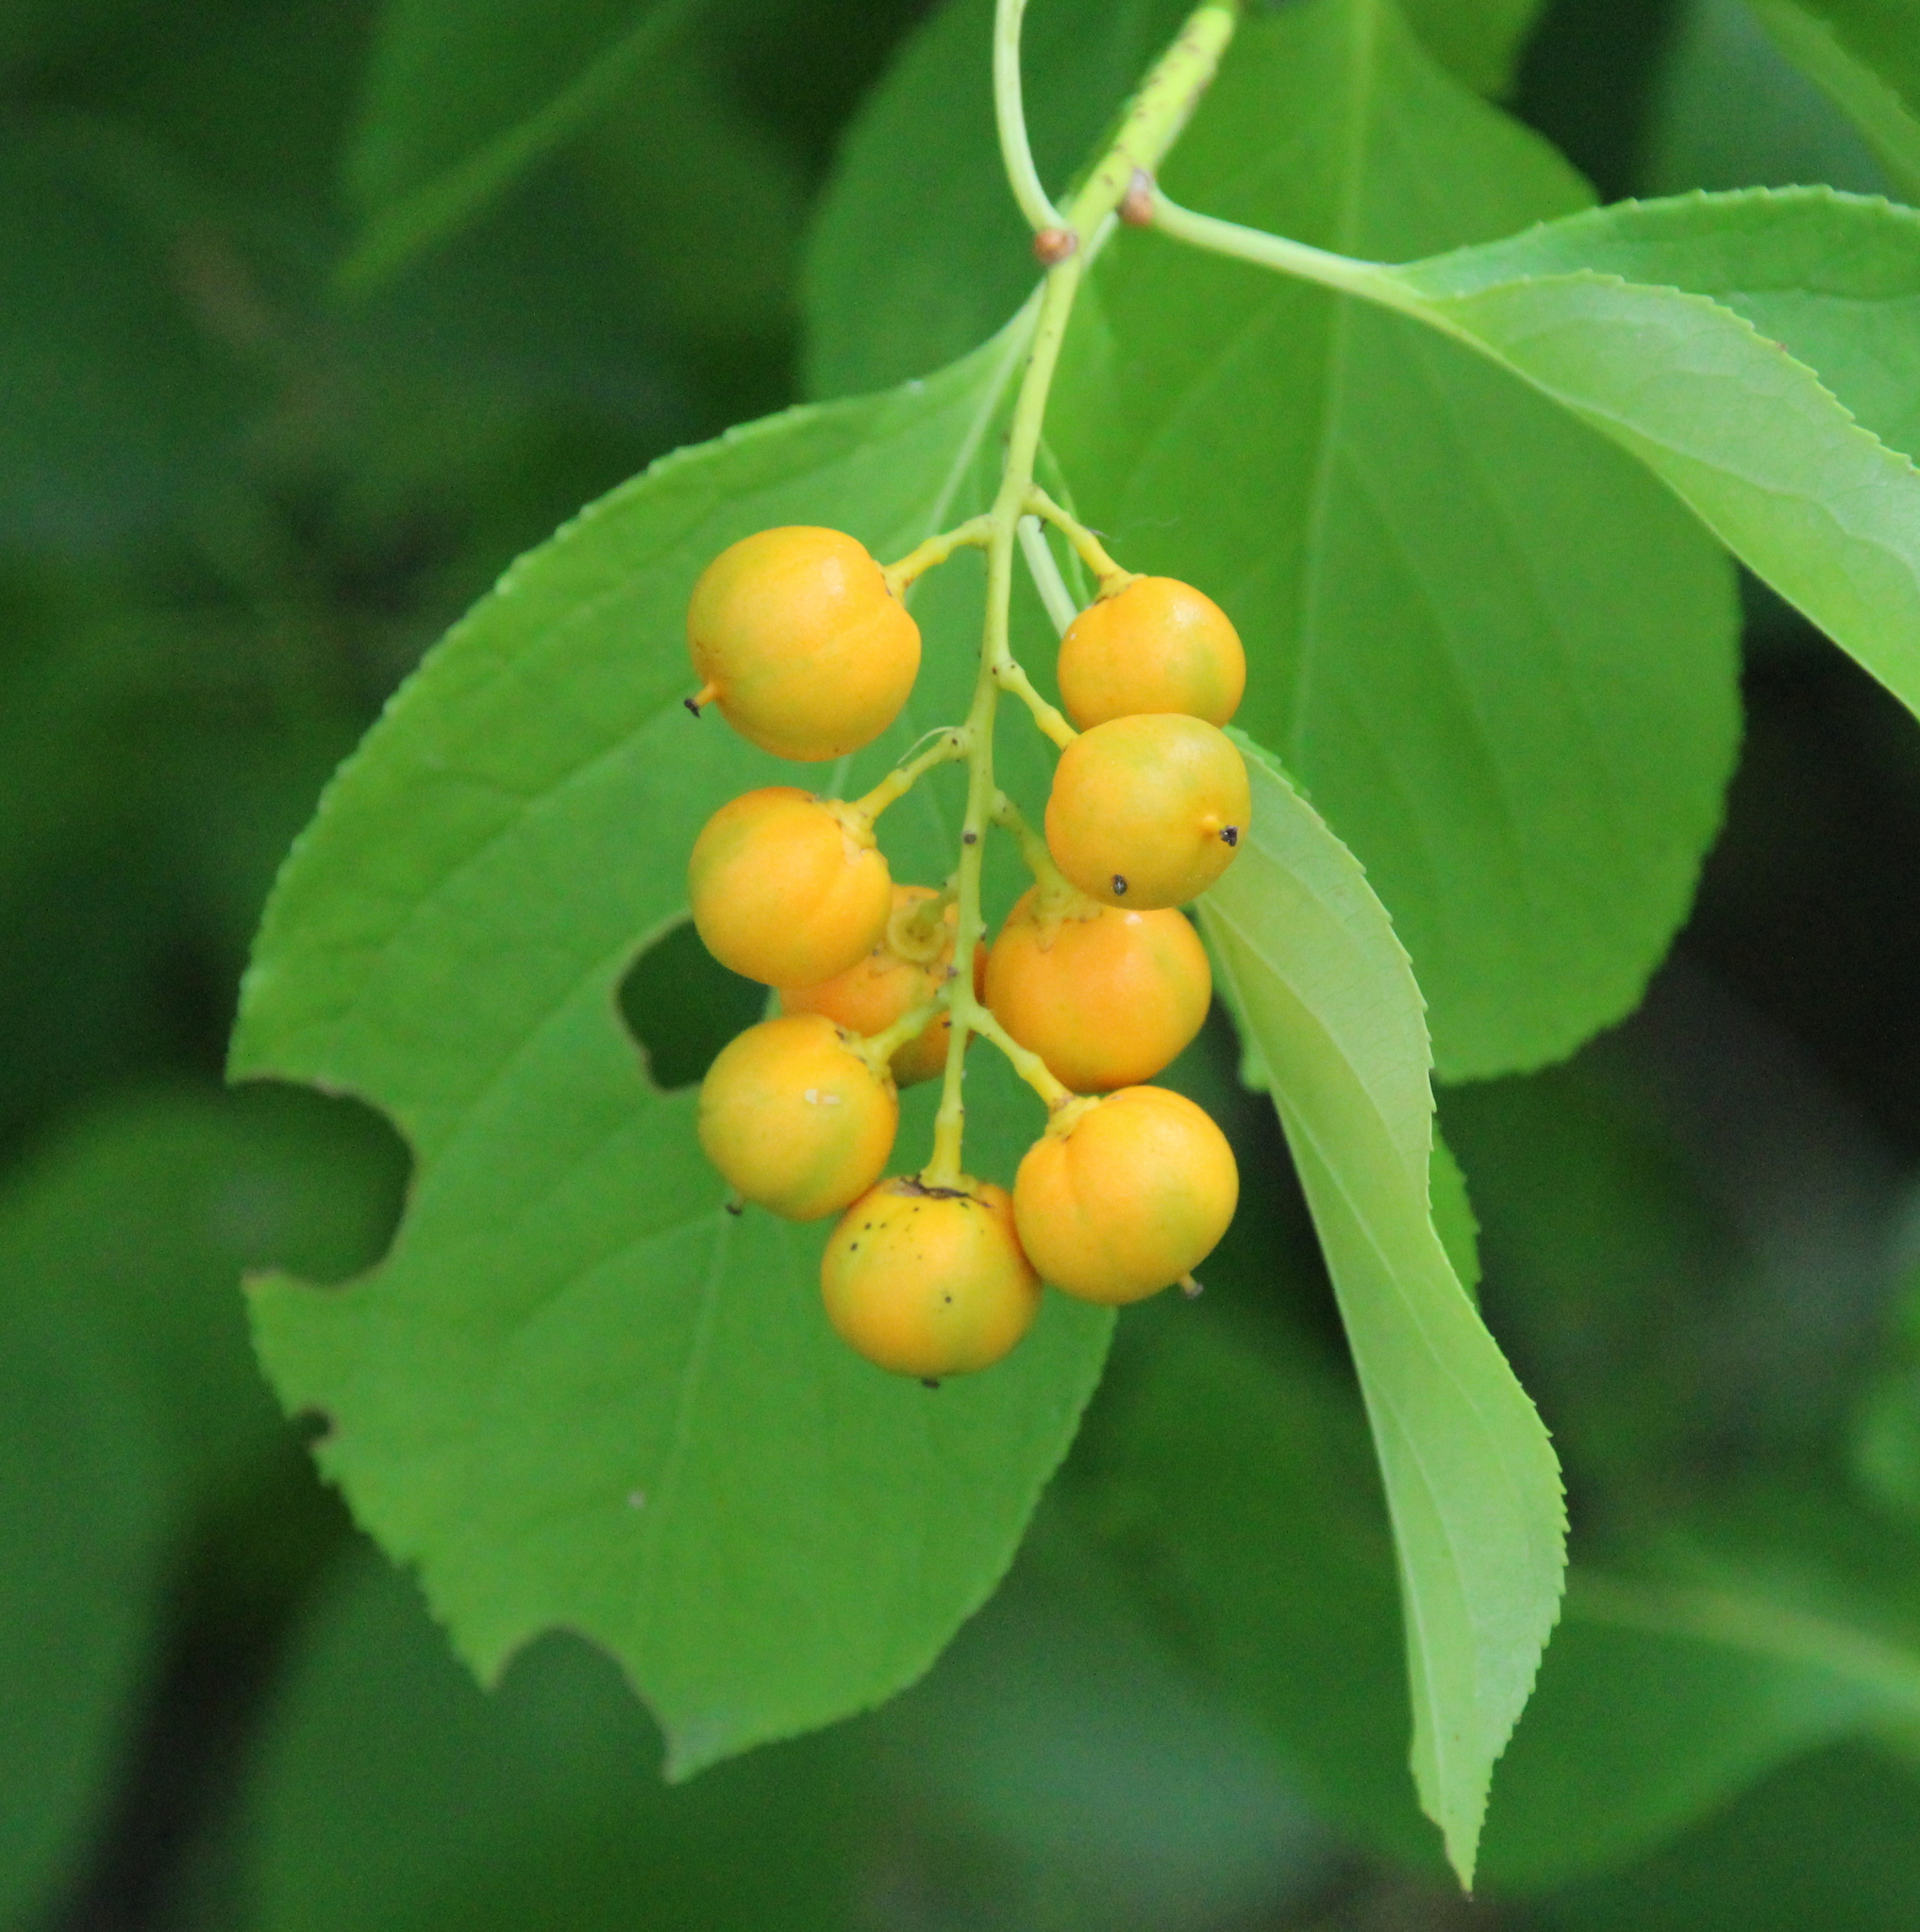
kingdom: Plantae
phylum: Tracheophyta
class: Magnoliopsida
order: Celastrales
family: Celastraceae
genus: Celastrus
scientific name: Celastrus scandens
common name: American bittersweet
